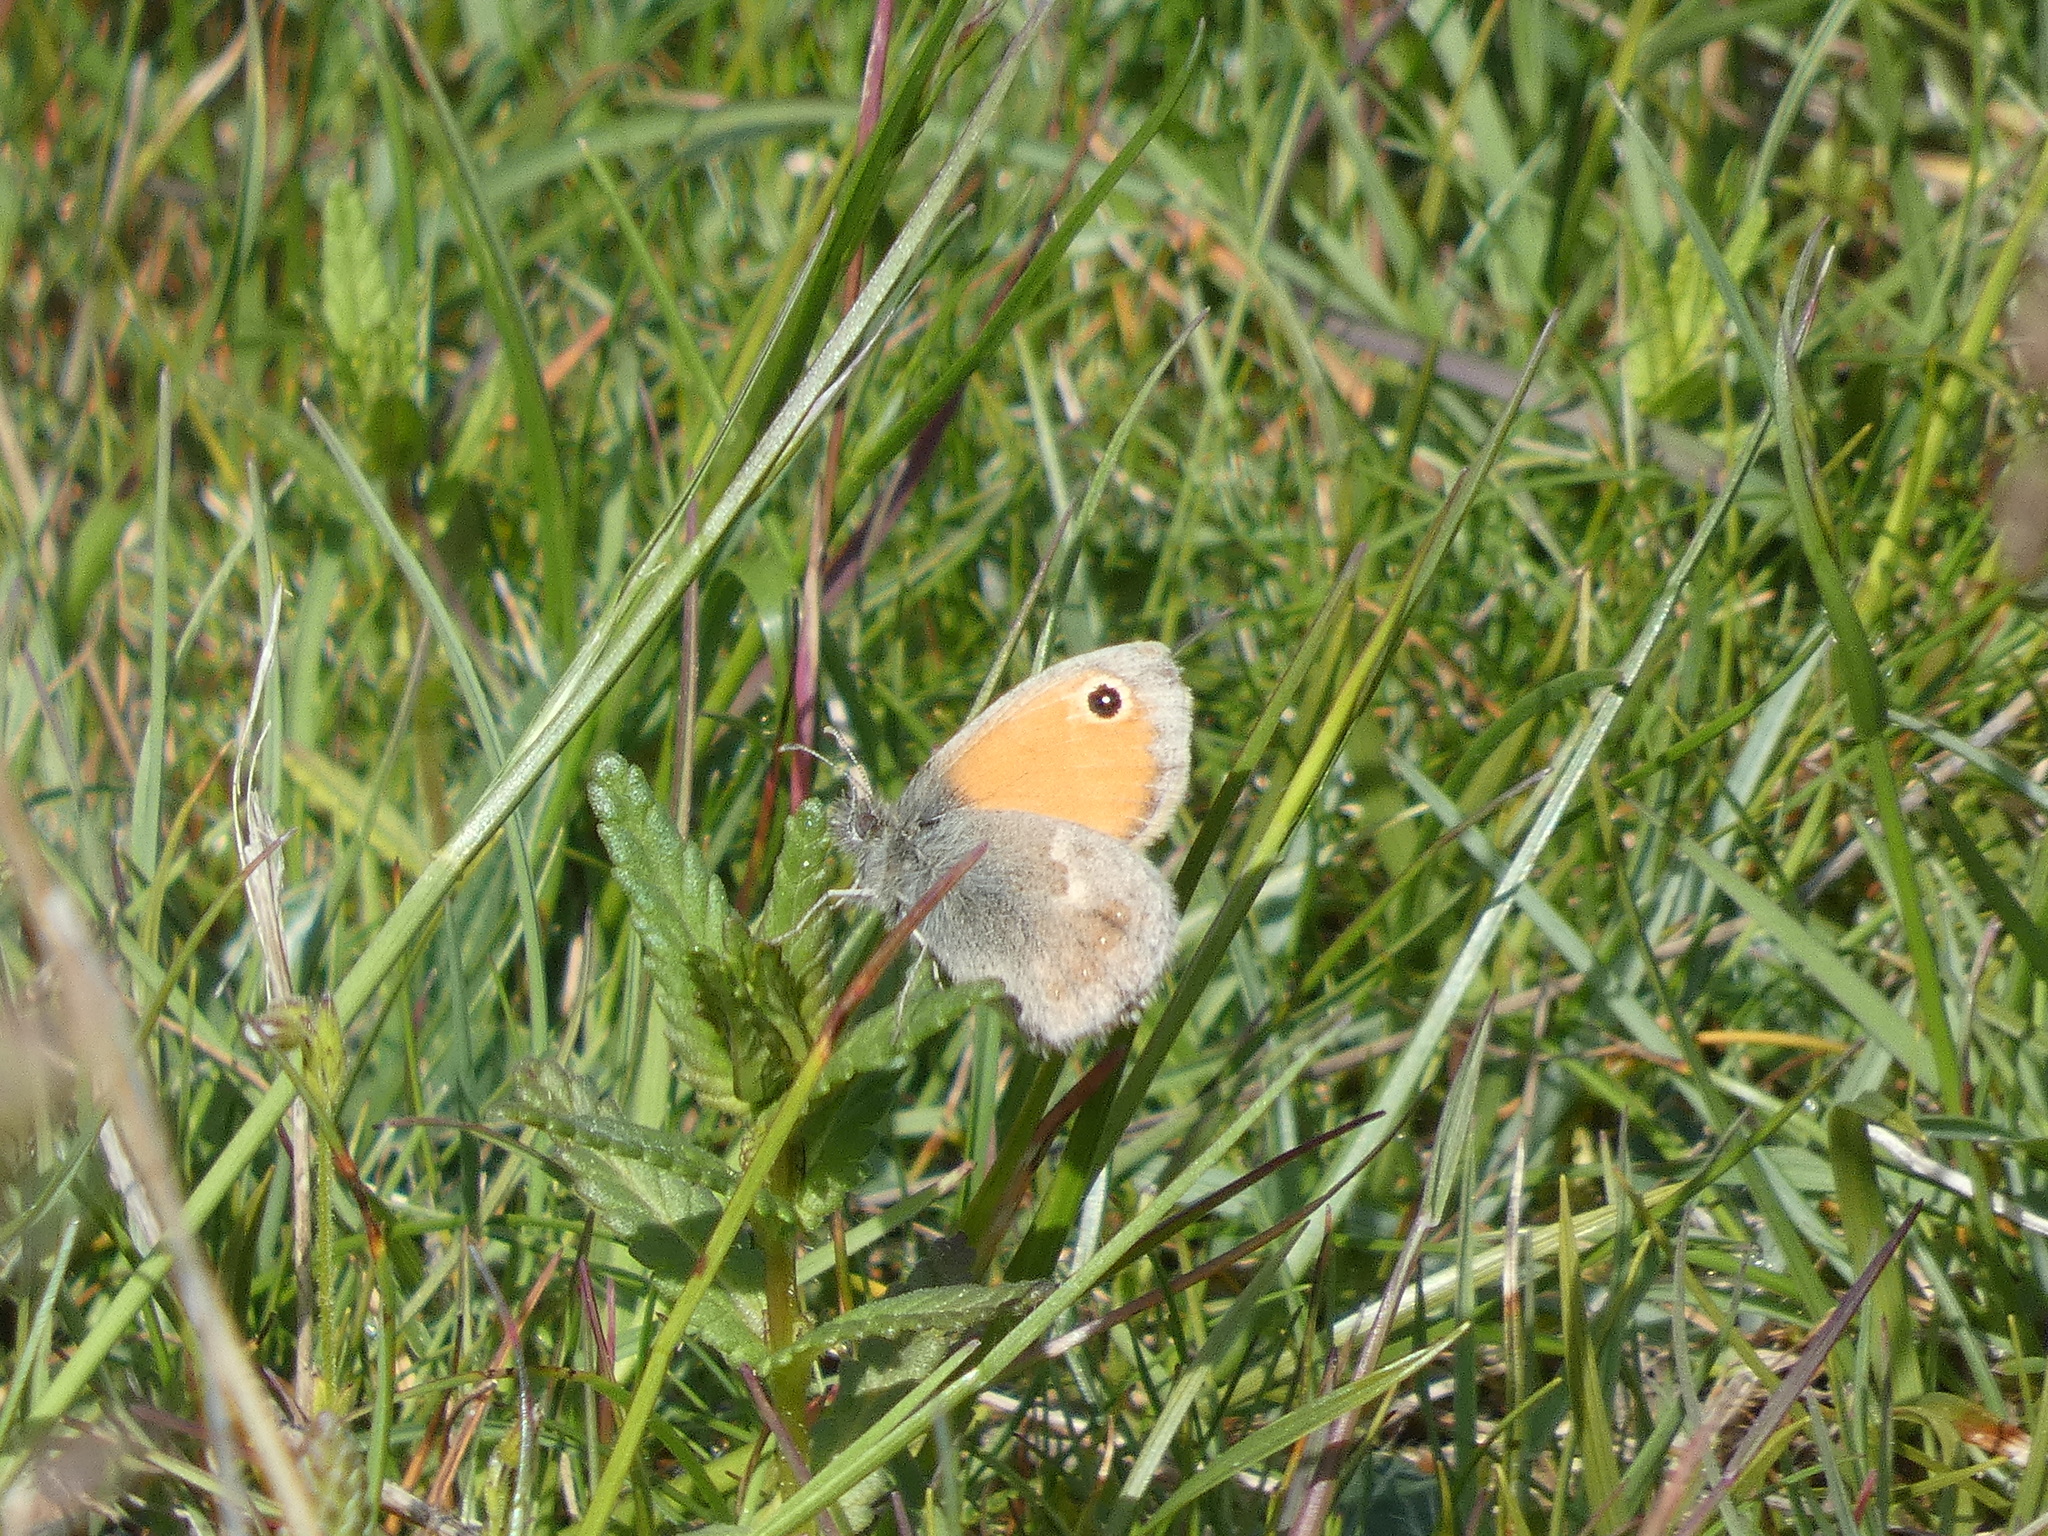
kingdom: Animalia
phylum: Arthropoda
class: Insecta
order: Lepidoptera
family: Nymphalidae
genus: Coenonympha
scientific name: Coenonympha pamphilus
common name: Small heath
